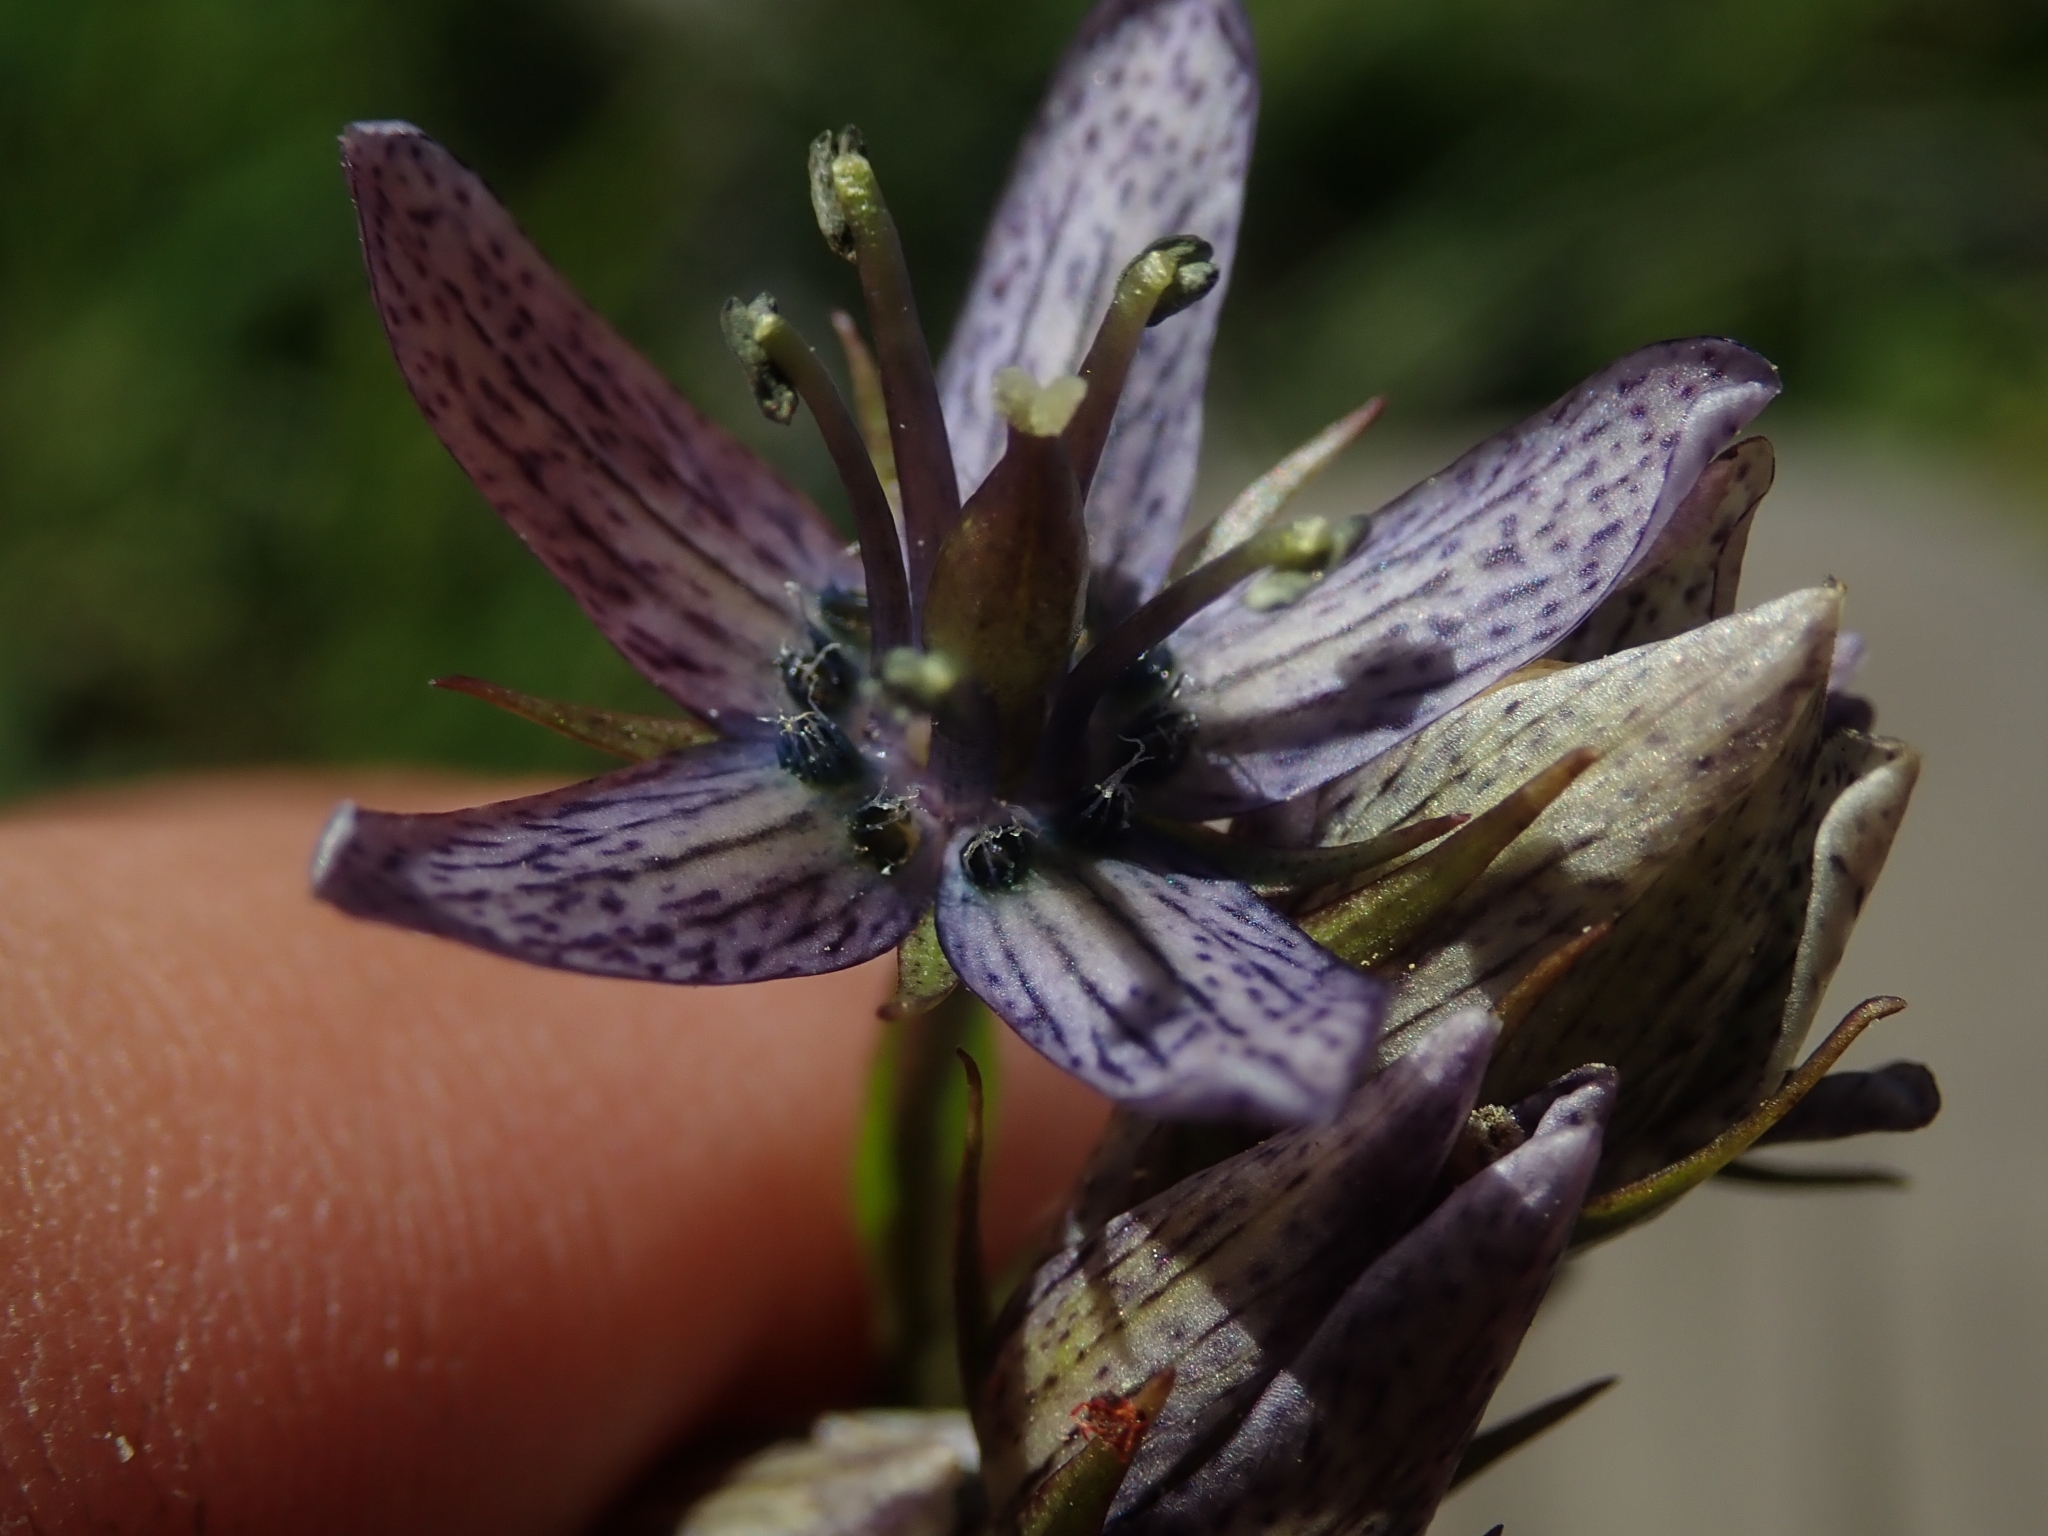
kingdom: Plantae
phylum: Tracheophyta
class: Magnoliopsida
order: Gentianales
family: Gentianaceae
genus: Swertia
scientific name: Swertia perennis
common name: Alpine bog swertia
